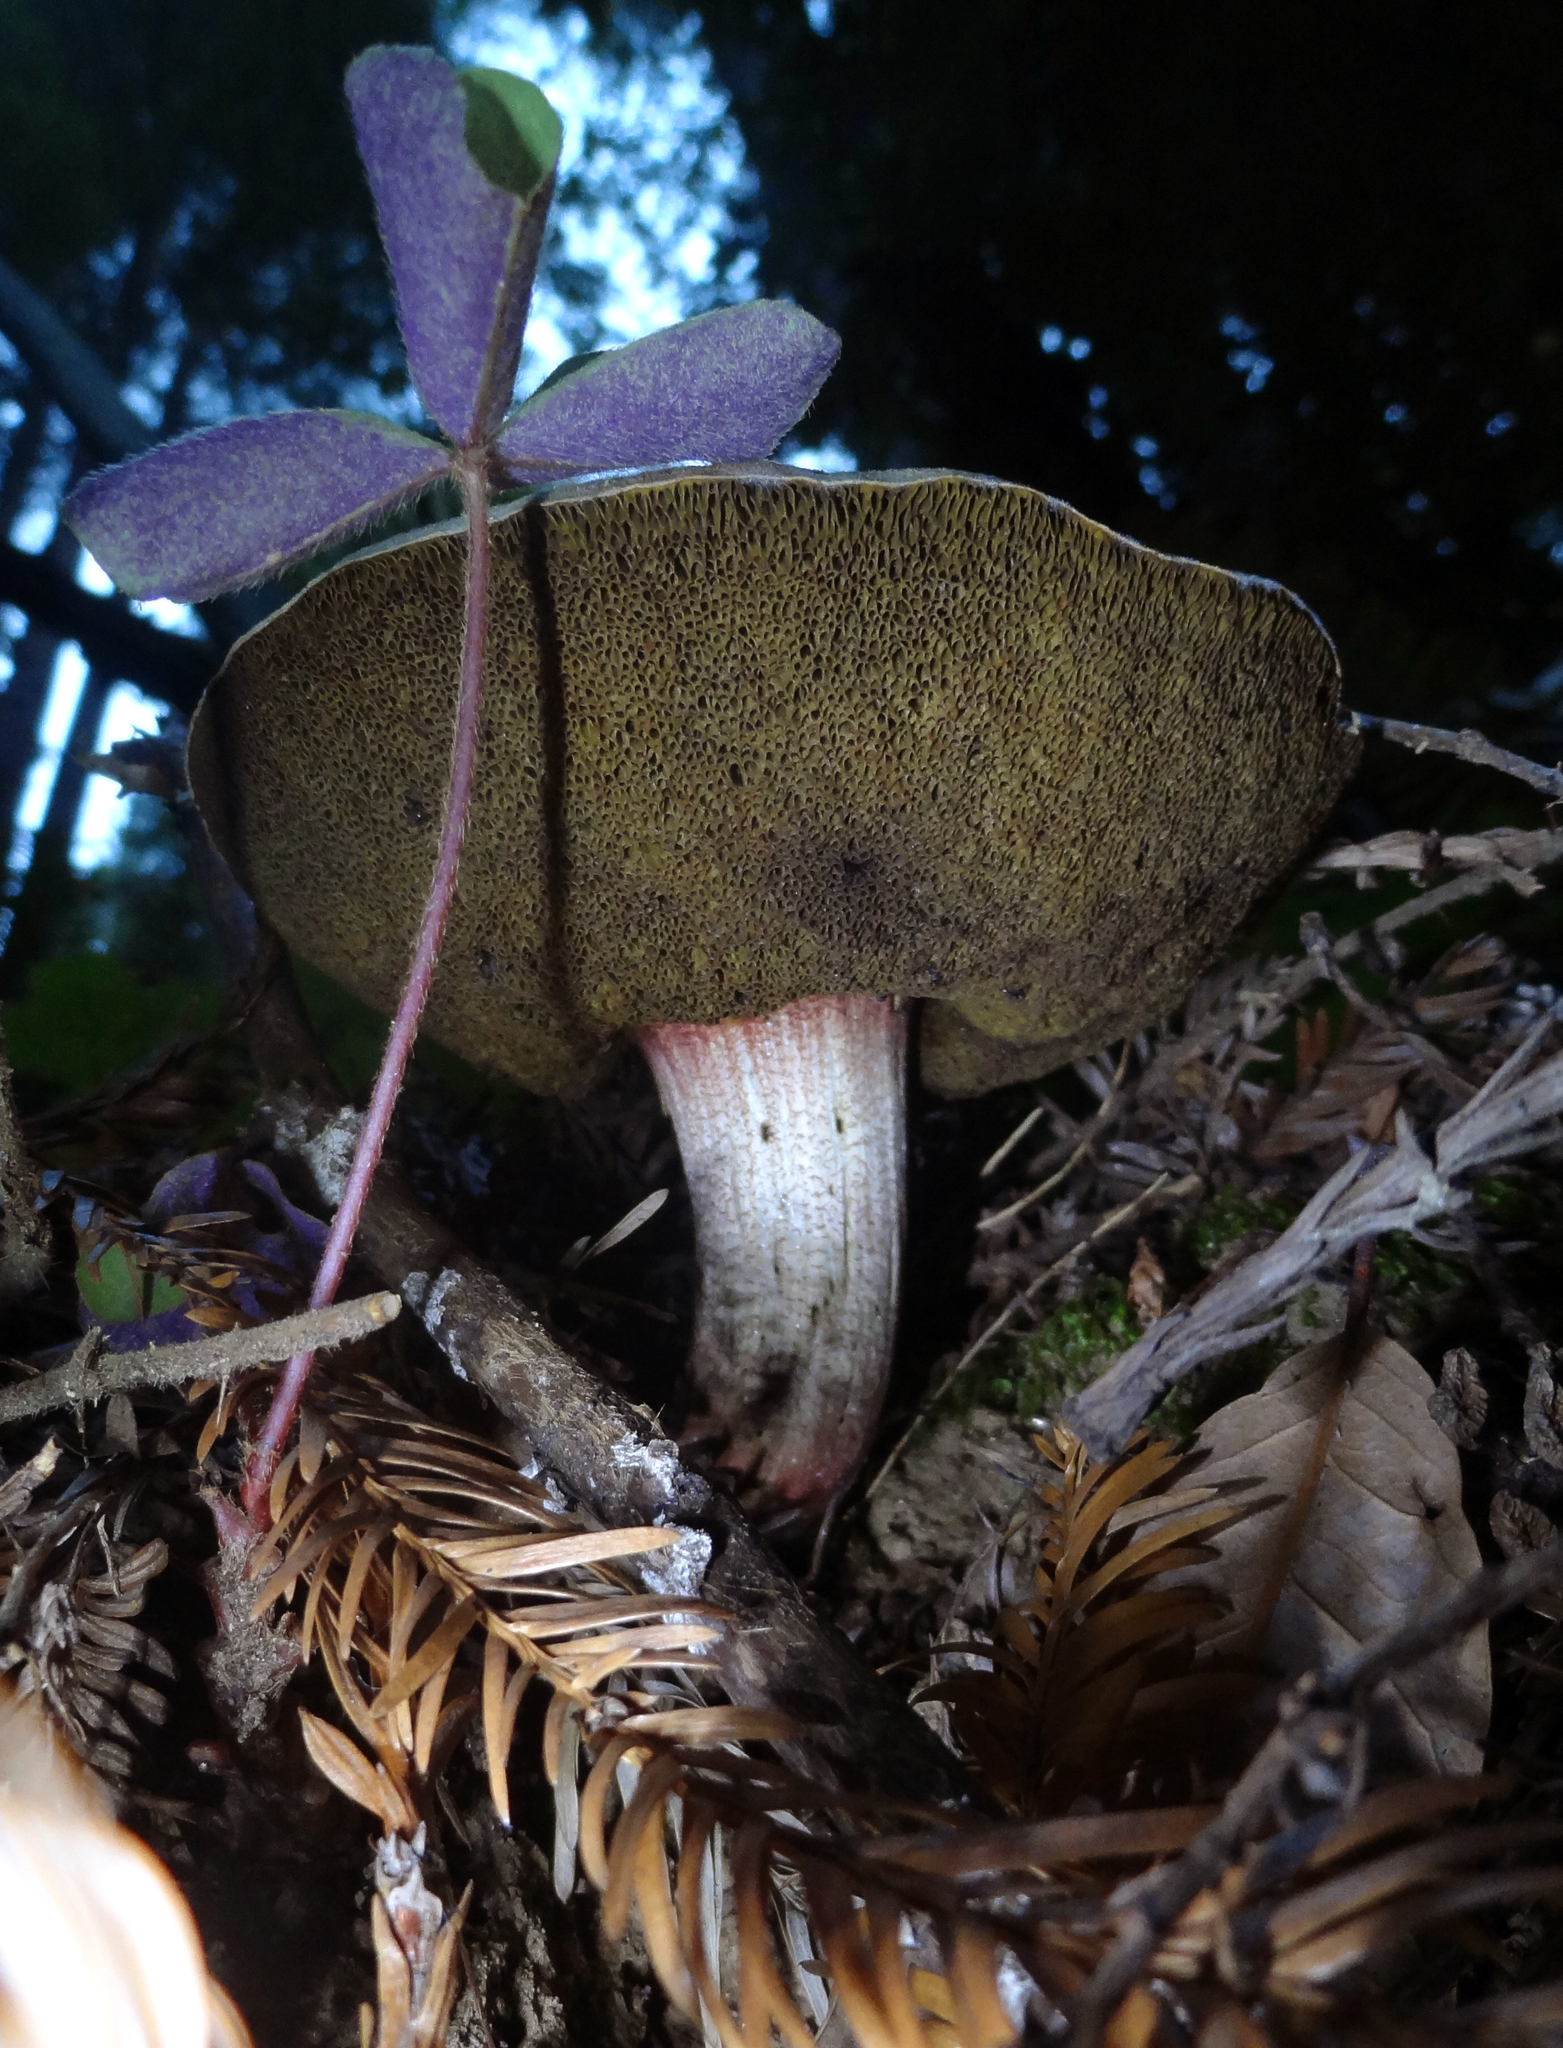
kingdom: Fungi
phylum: Basidiomycota
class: Agaricomycetes
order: Boletales
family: Boletaceae
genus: Xerocomellus
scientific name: Xerocomellus mendocinensis
